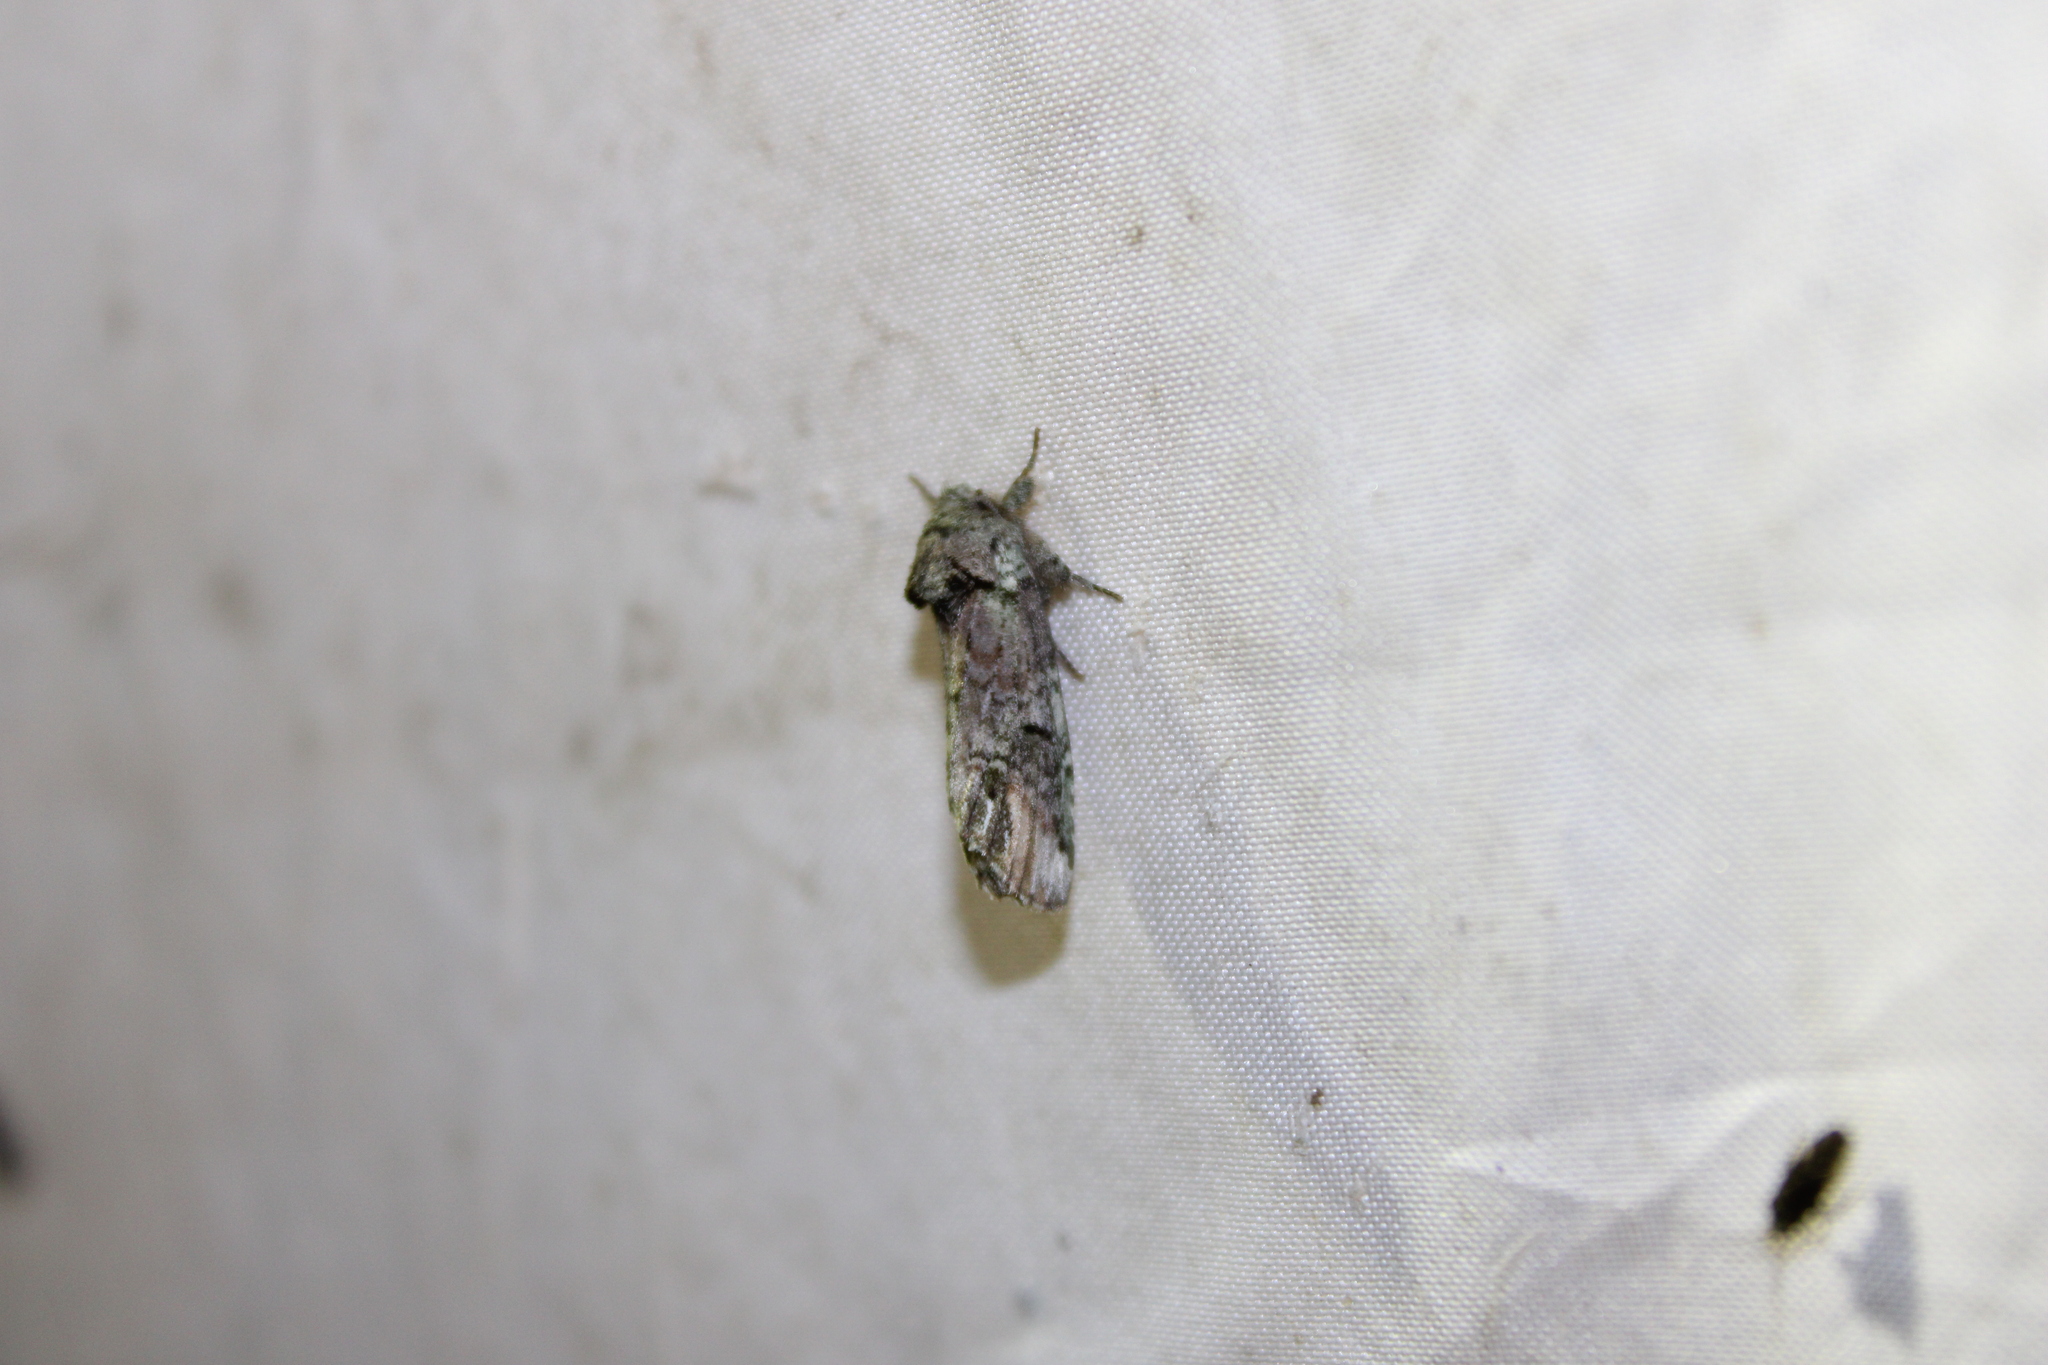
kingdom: Animalia
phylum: Arthropoda
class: Insecta
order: Lepidoptera
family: Notodontidae
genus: Schizura
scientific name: Schizura
